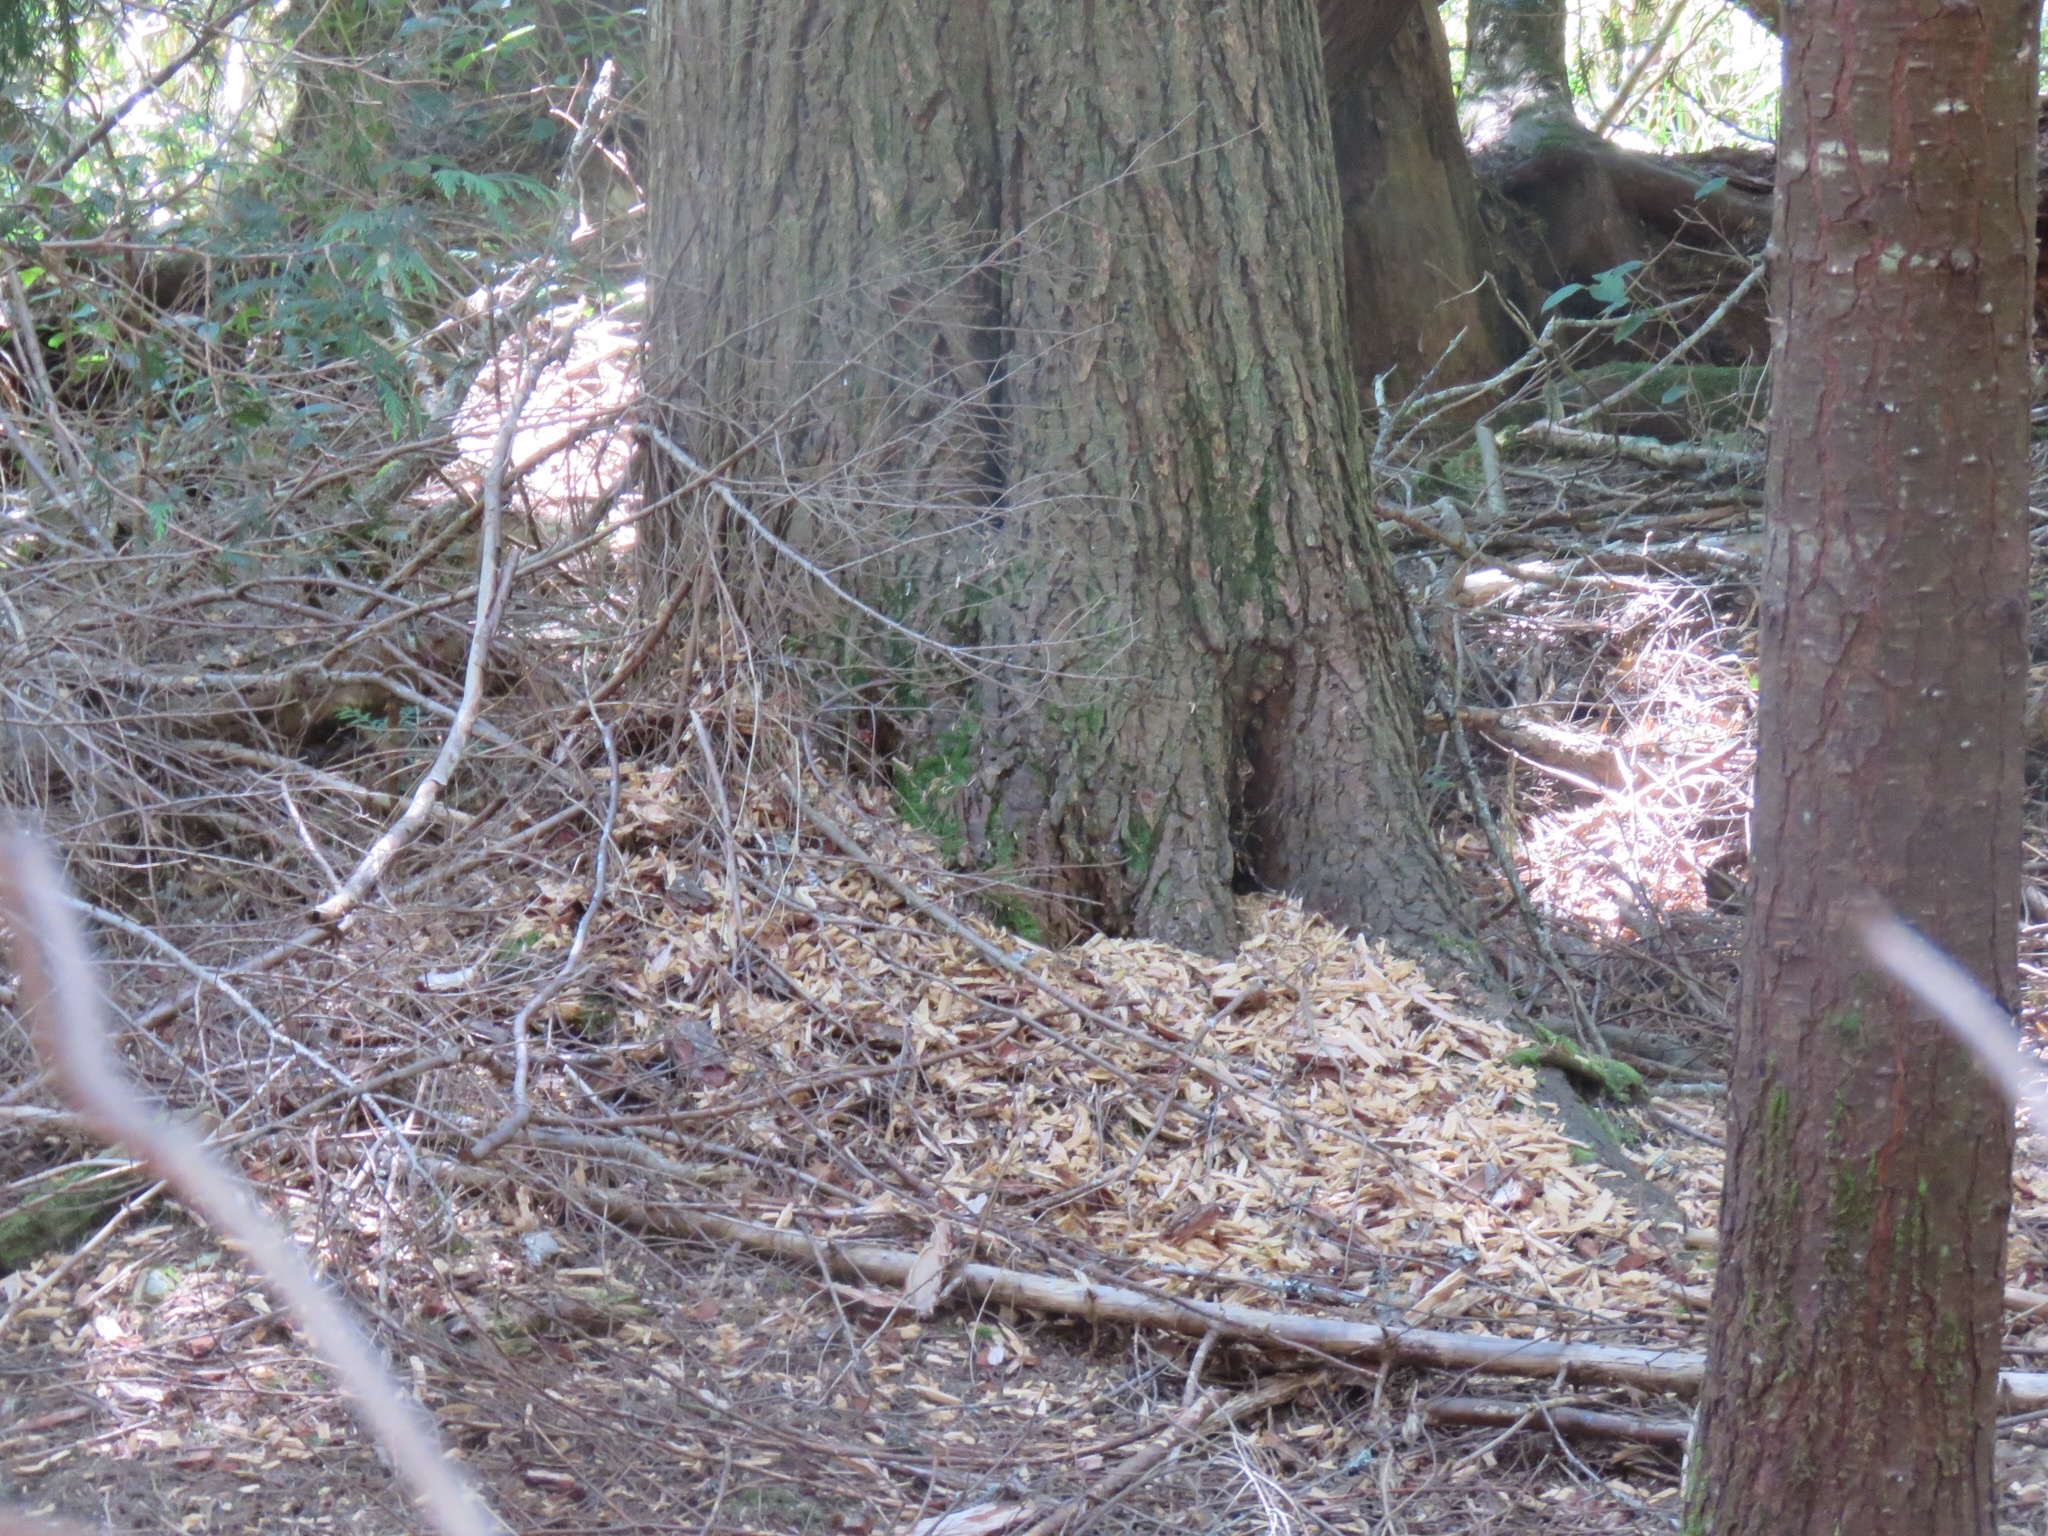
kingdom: Animalia
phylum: Chordata
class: Aves
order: Piciformes
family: Picidae
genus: Dryocopus
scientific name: Dryocopus pileatus
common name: Pileated woodpecker
